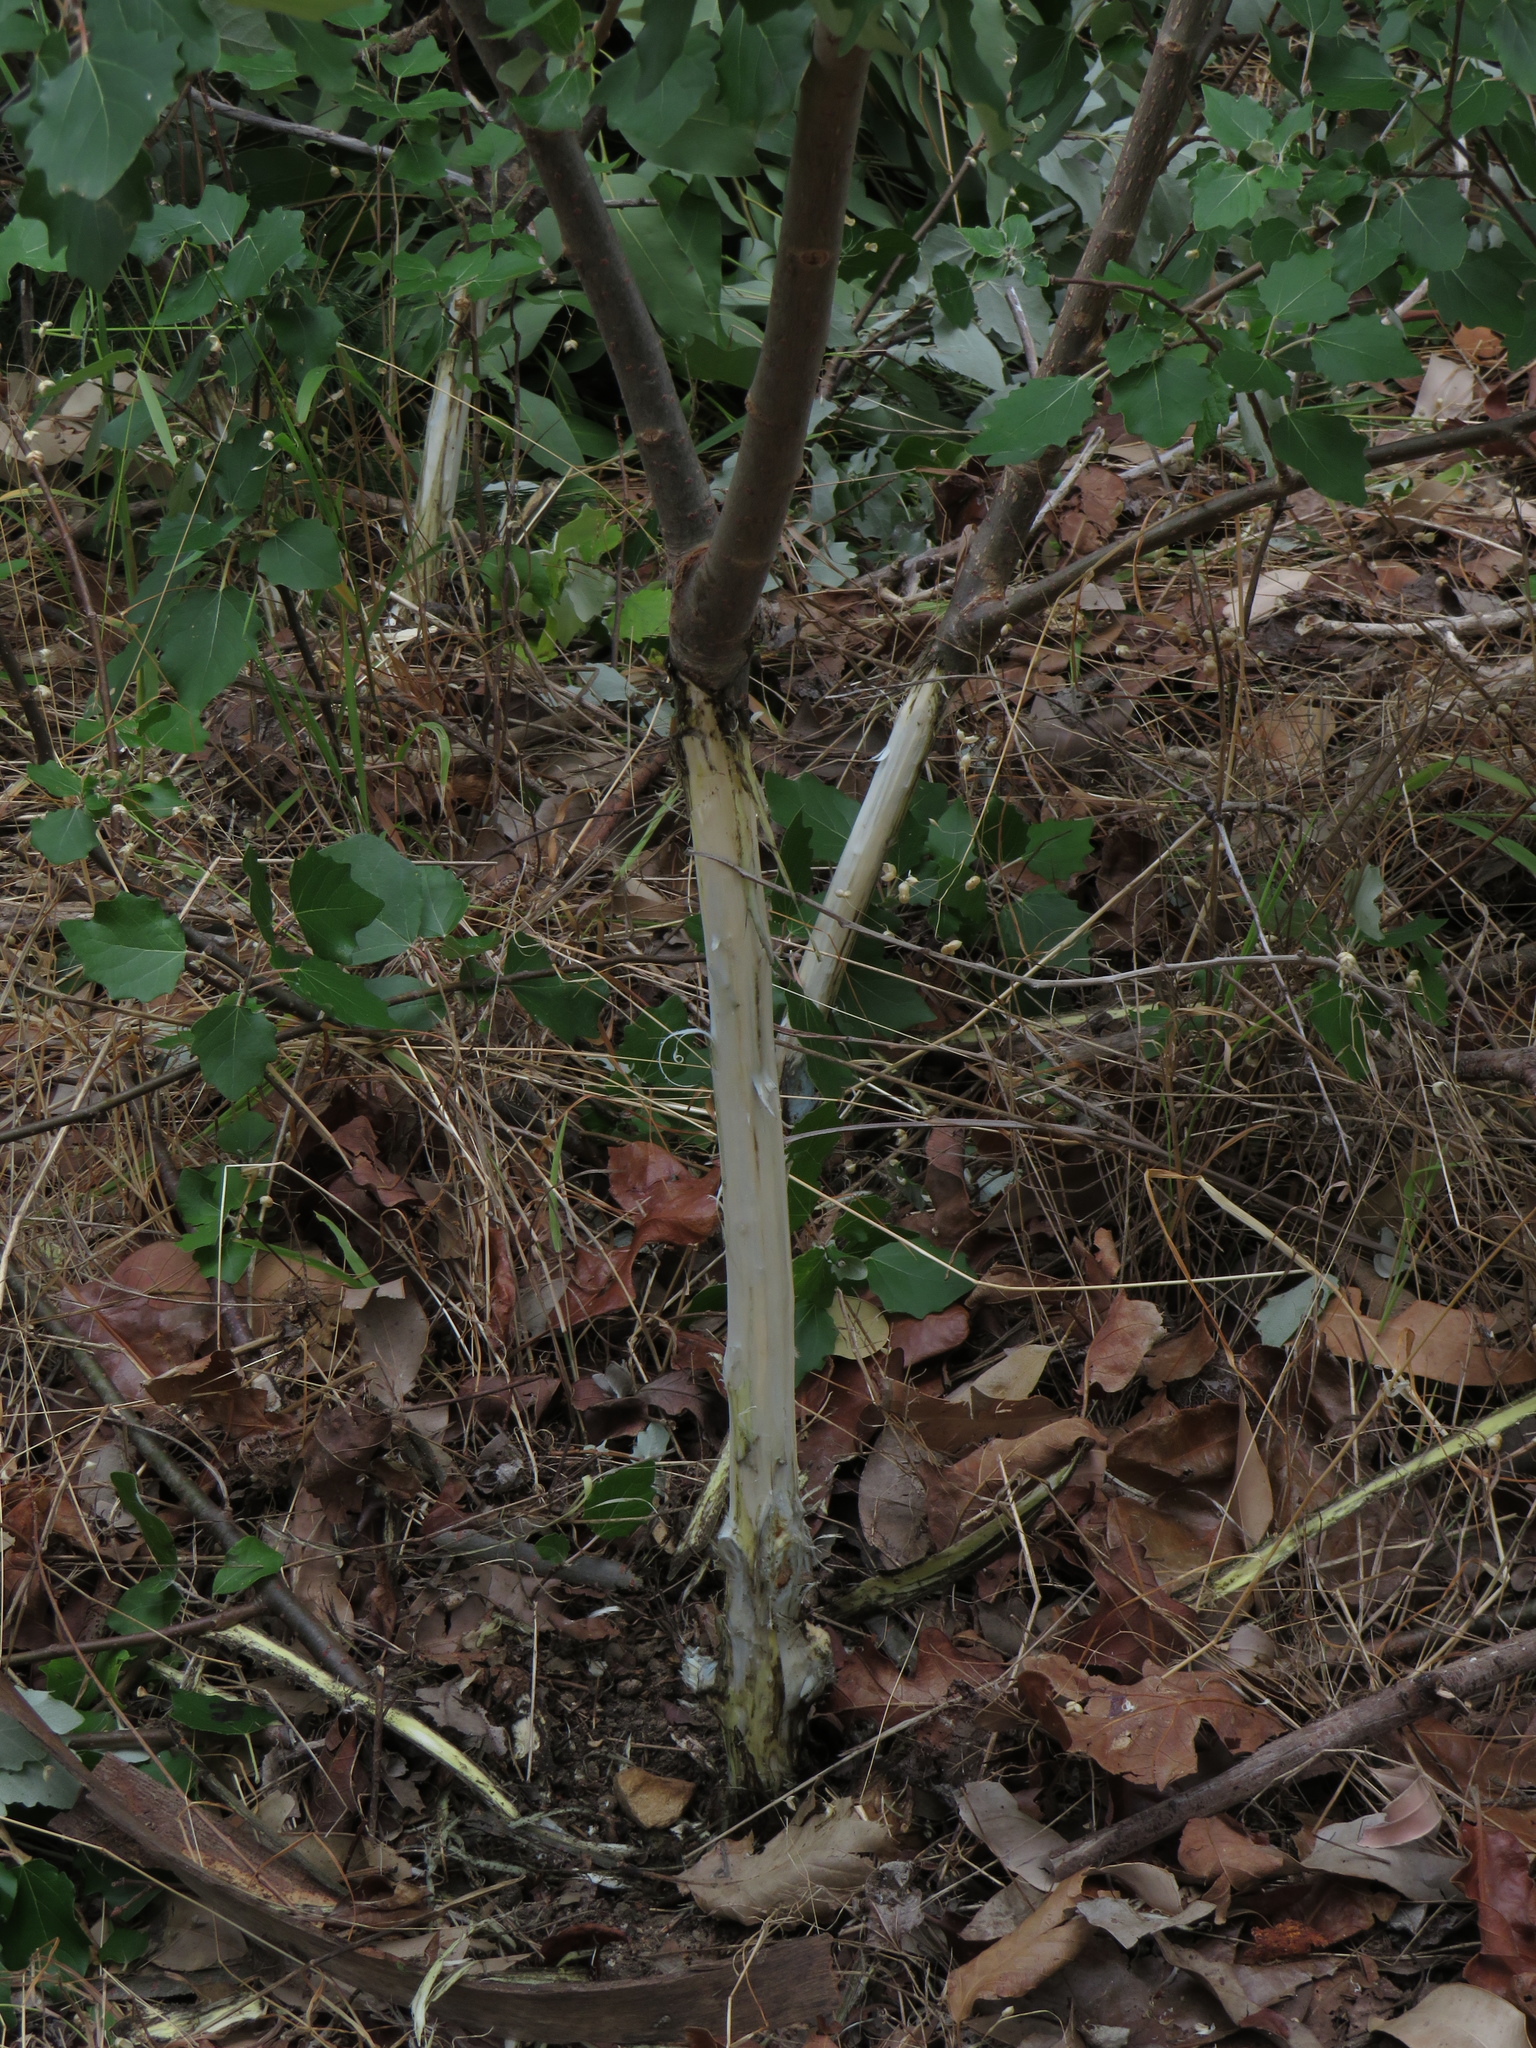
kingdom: Plantae
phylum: Tracheophyta
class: Magnoliopsida
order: Malpighiales
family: Salicaceae
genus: Populus
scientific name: Populus canescens
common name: Gray poplar
